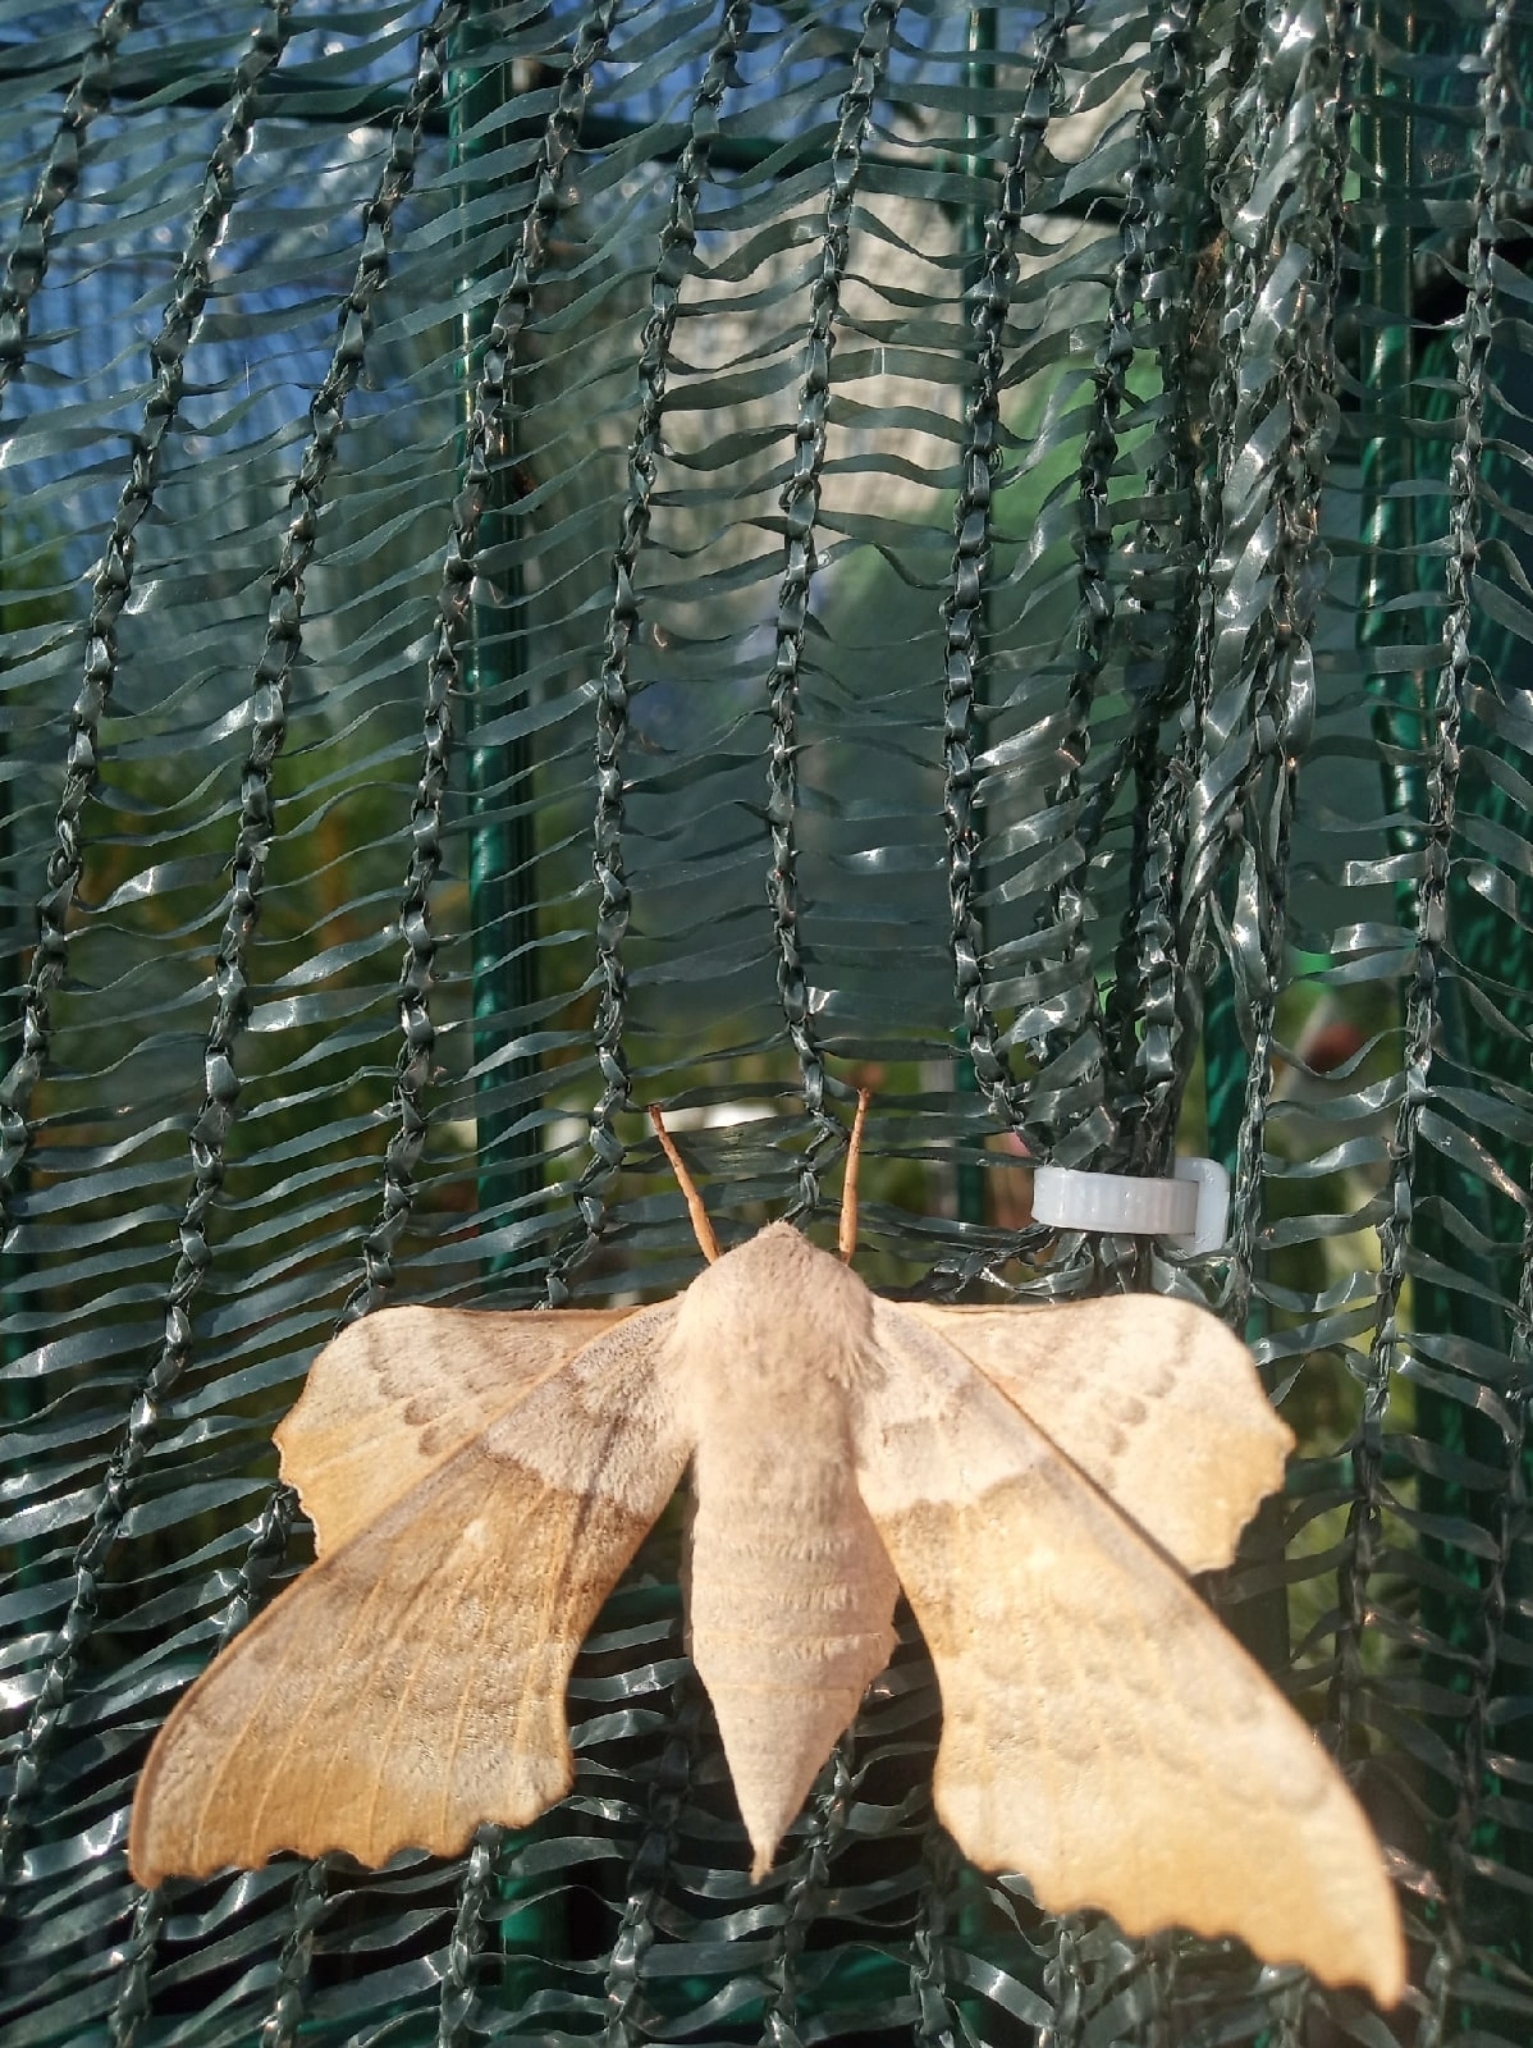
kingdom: Animalia
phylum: Arthropoda
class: Insecta
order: Lepidoptera
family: Sphingidae
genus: Laothoe
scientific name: Laothoe populi
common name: Poplar hawk-moth
